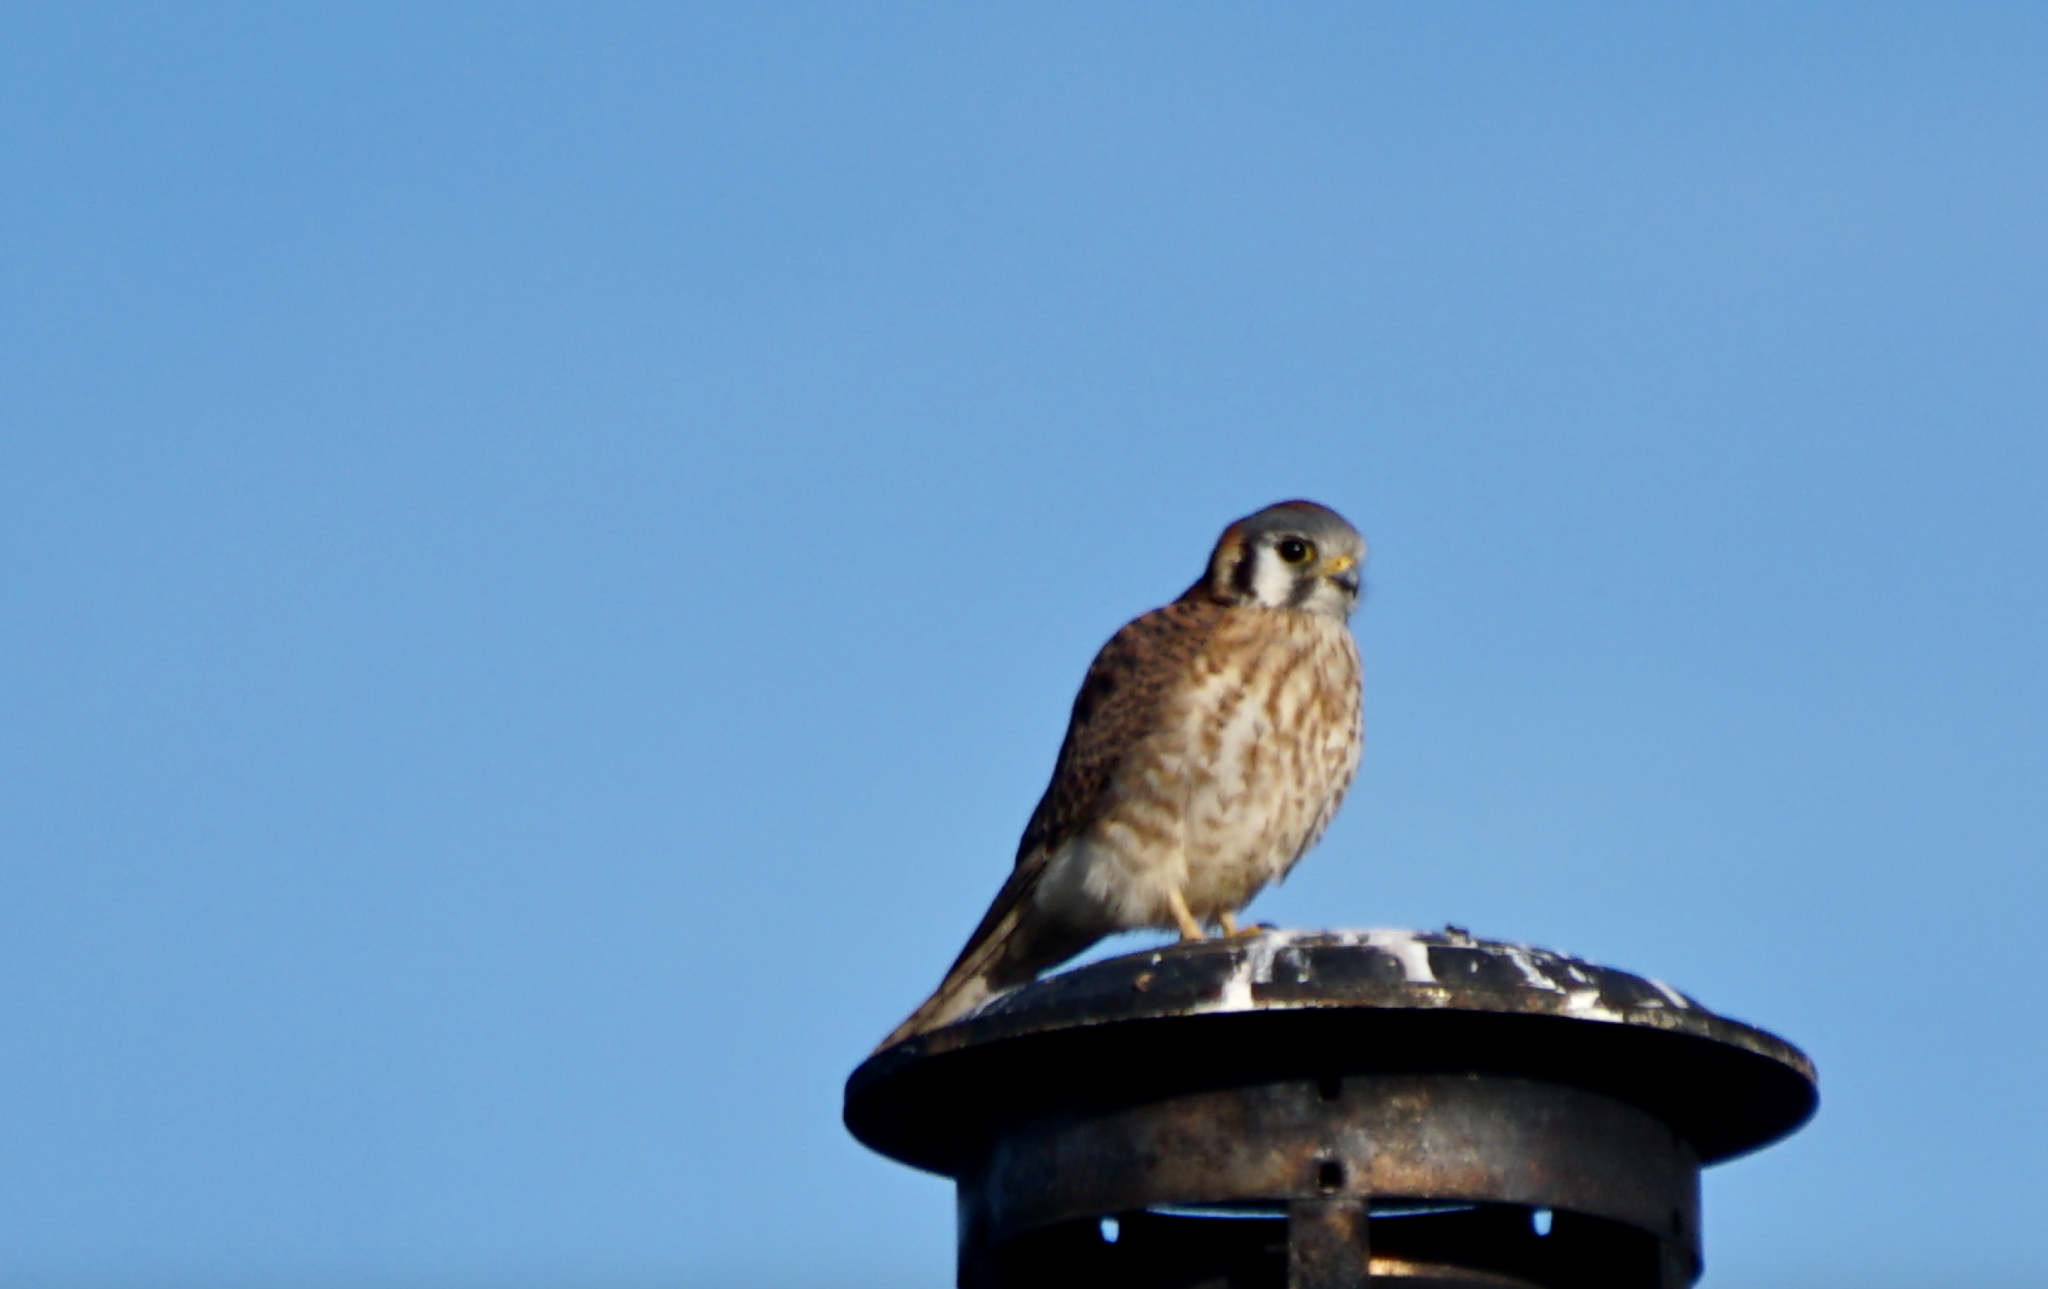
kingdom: Animalia
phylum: Chordata
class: Aves
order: Falconiformes
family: Falconidae
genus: Falco
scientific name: Falco sparverius
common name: American kestrel
